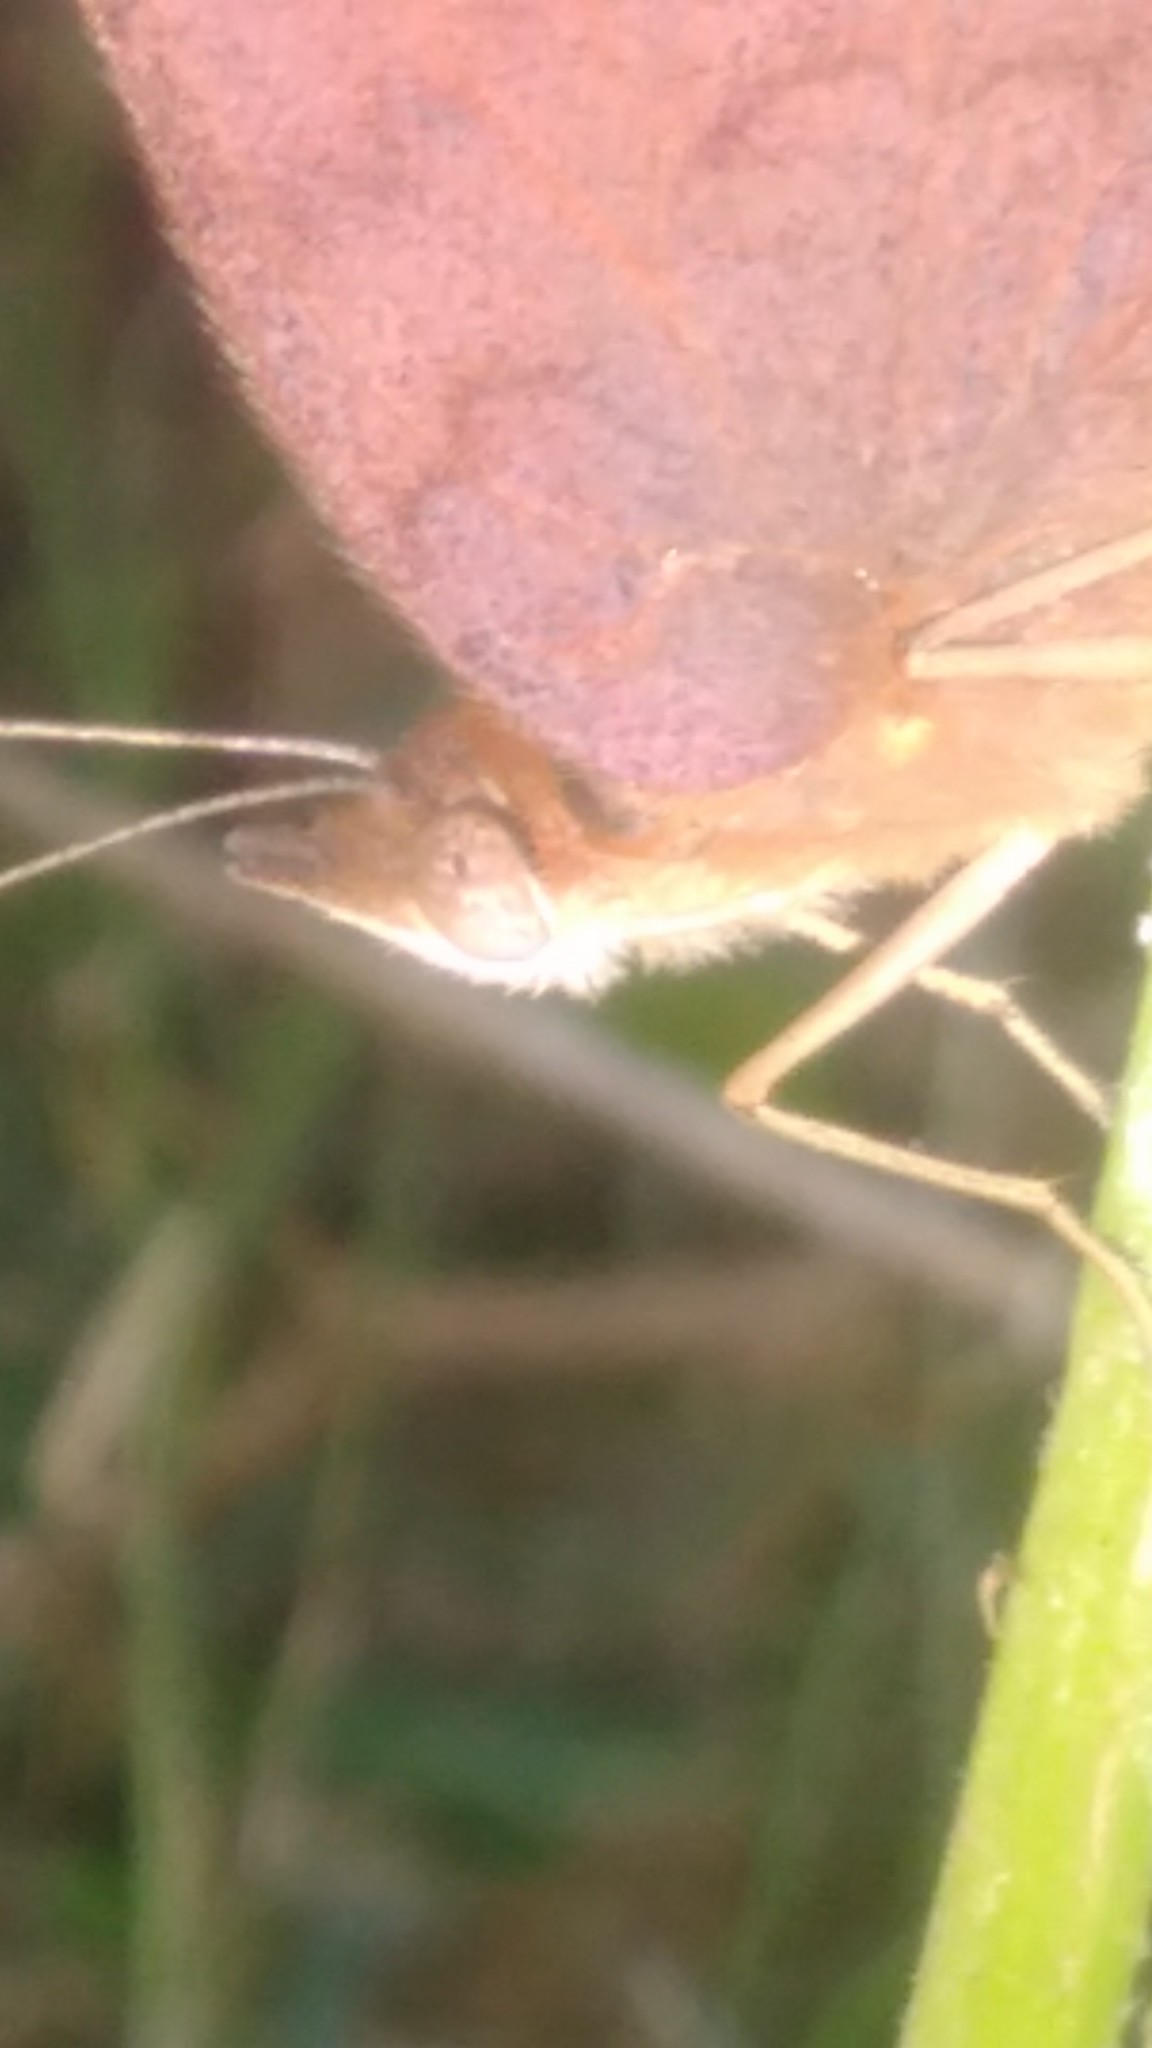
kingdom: Animalia
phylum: Arthropoda
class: Insecta
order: Lepidoptera
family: Nymphalidae
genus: Junonia
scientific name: Junonia lavinia
